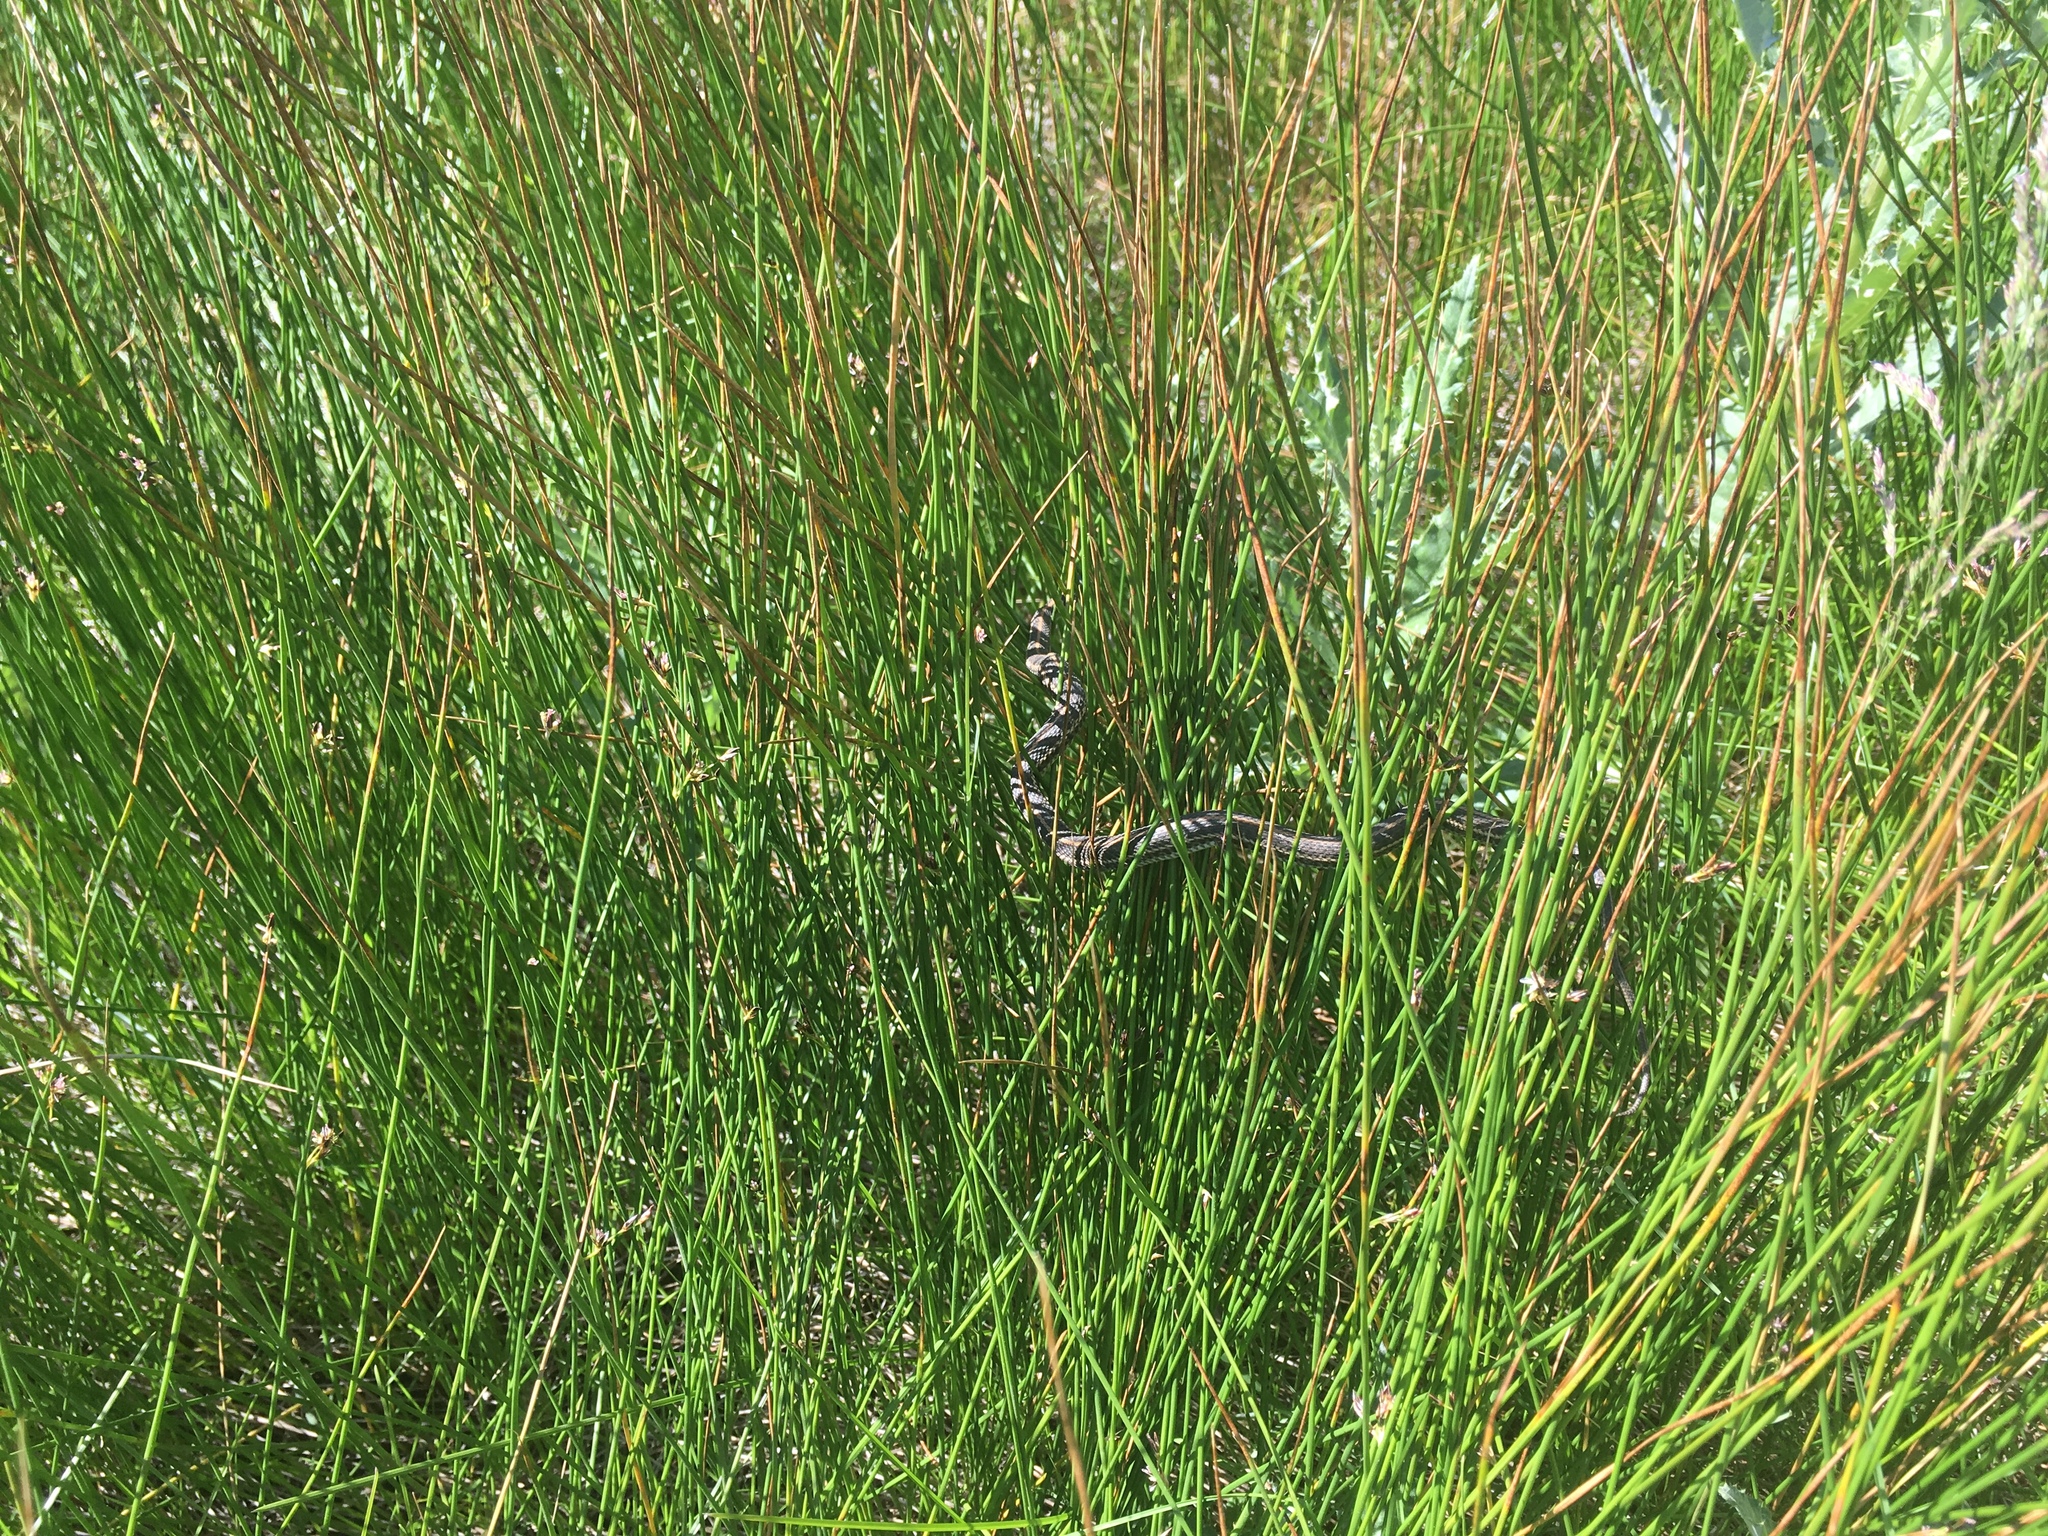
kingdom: Animalia
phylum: Chordata
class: Squamata
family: Colubridae
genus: Thamnophis
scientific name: Thamnophis radix
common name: Plains garter snake
